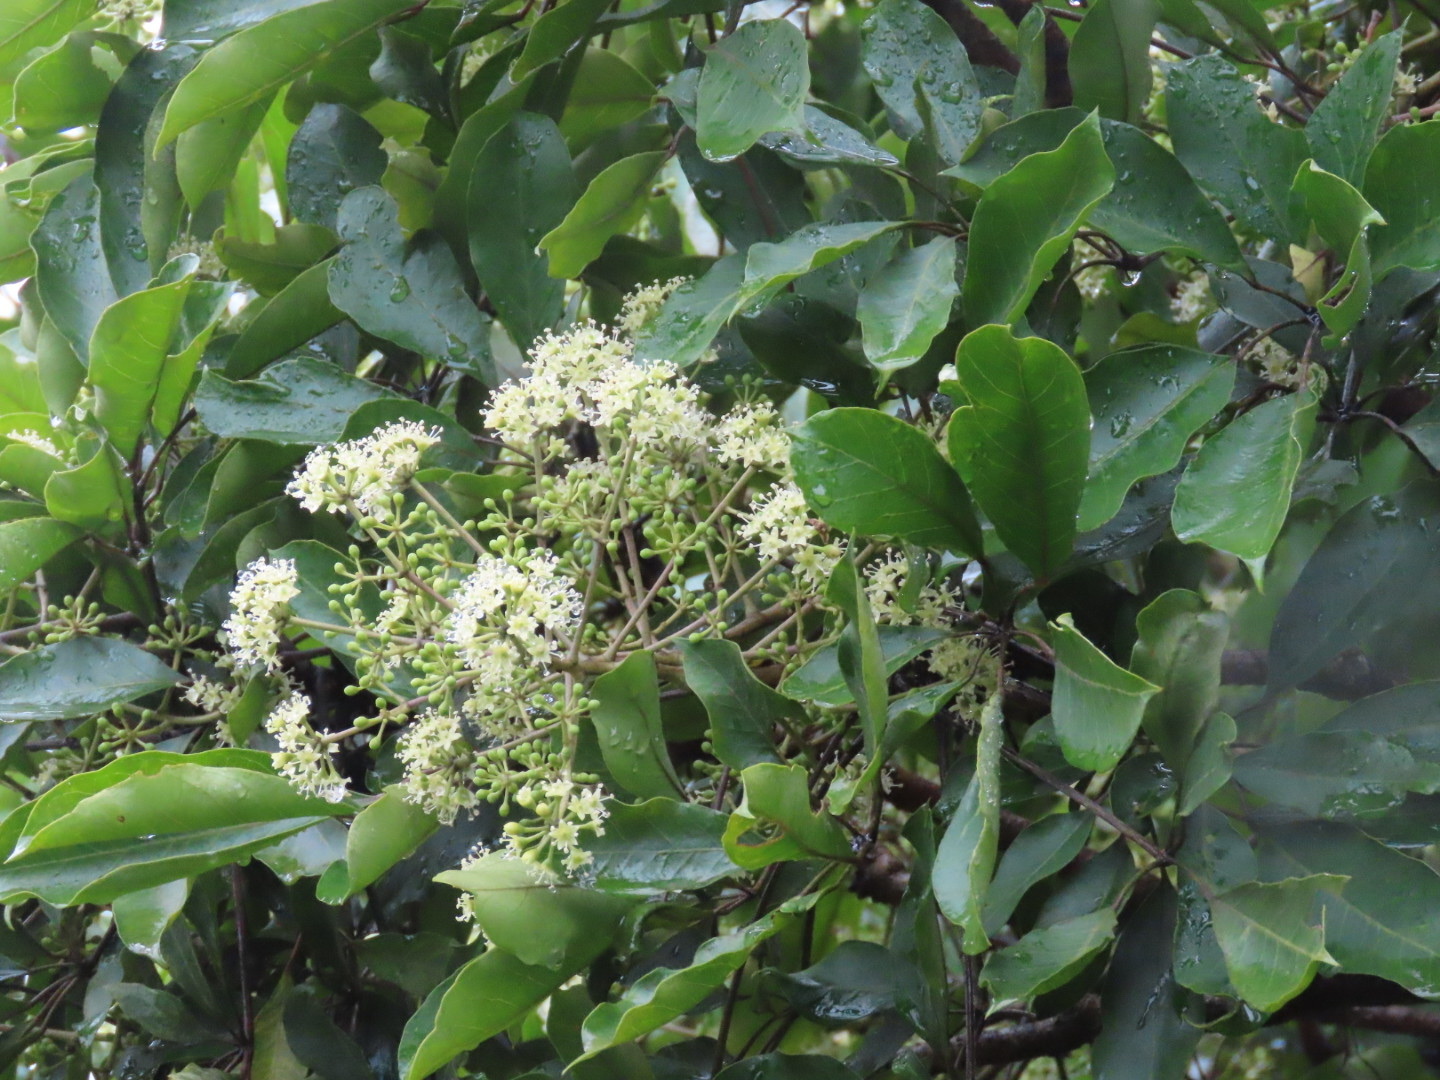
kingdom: Plantae
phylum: Tracheophyta
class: Magnoliopsida
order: Apiales
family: Araliaceae
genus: Heptapleurum
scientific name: Heptapleurum heptaphyllum
